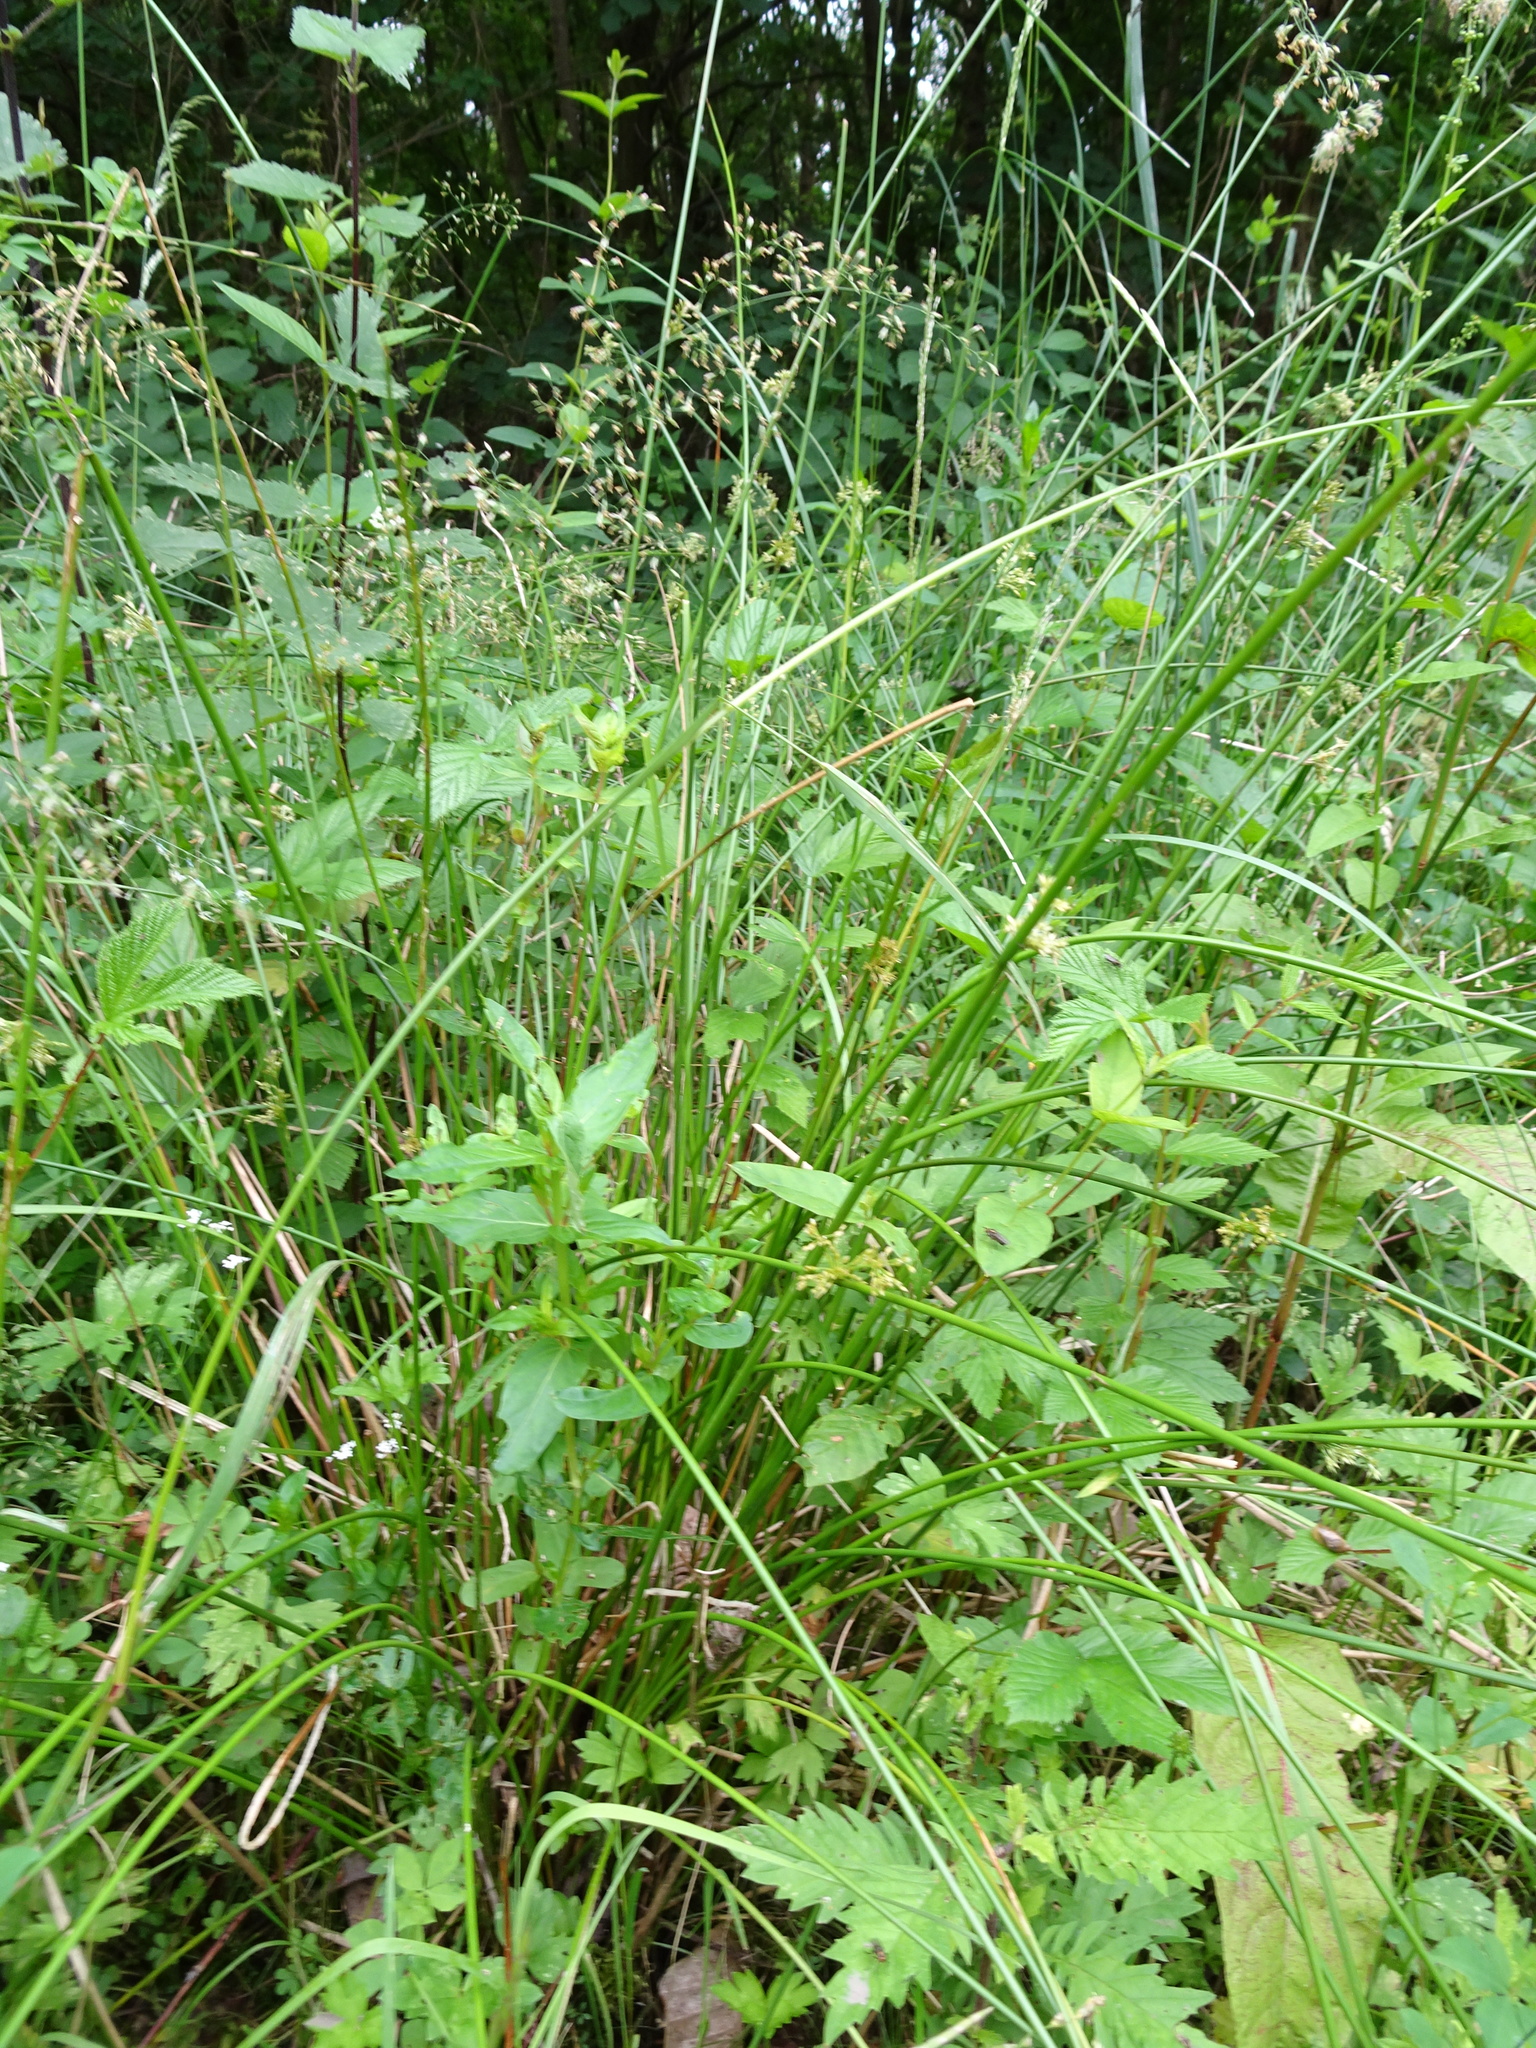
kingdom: Plantae
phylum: Tracheophyta
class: Liliopsida
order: Poales
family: Juncaceae
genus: Juncus
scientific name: Juncus effusus
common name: Soft rush
